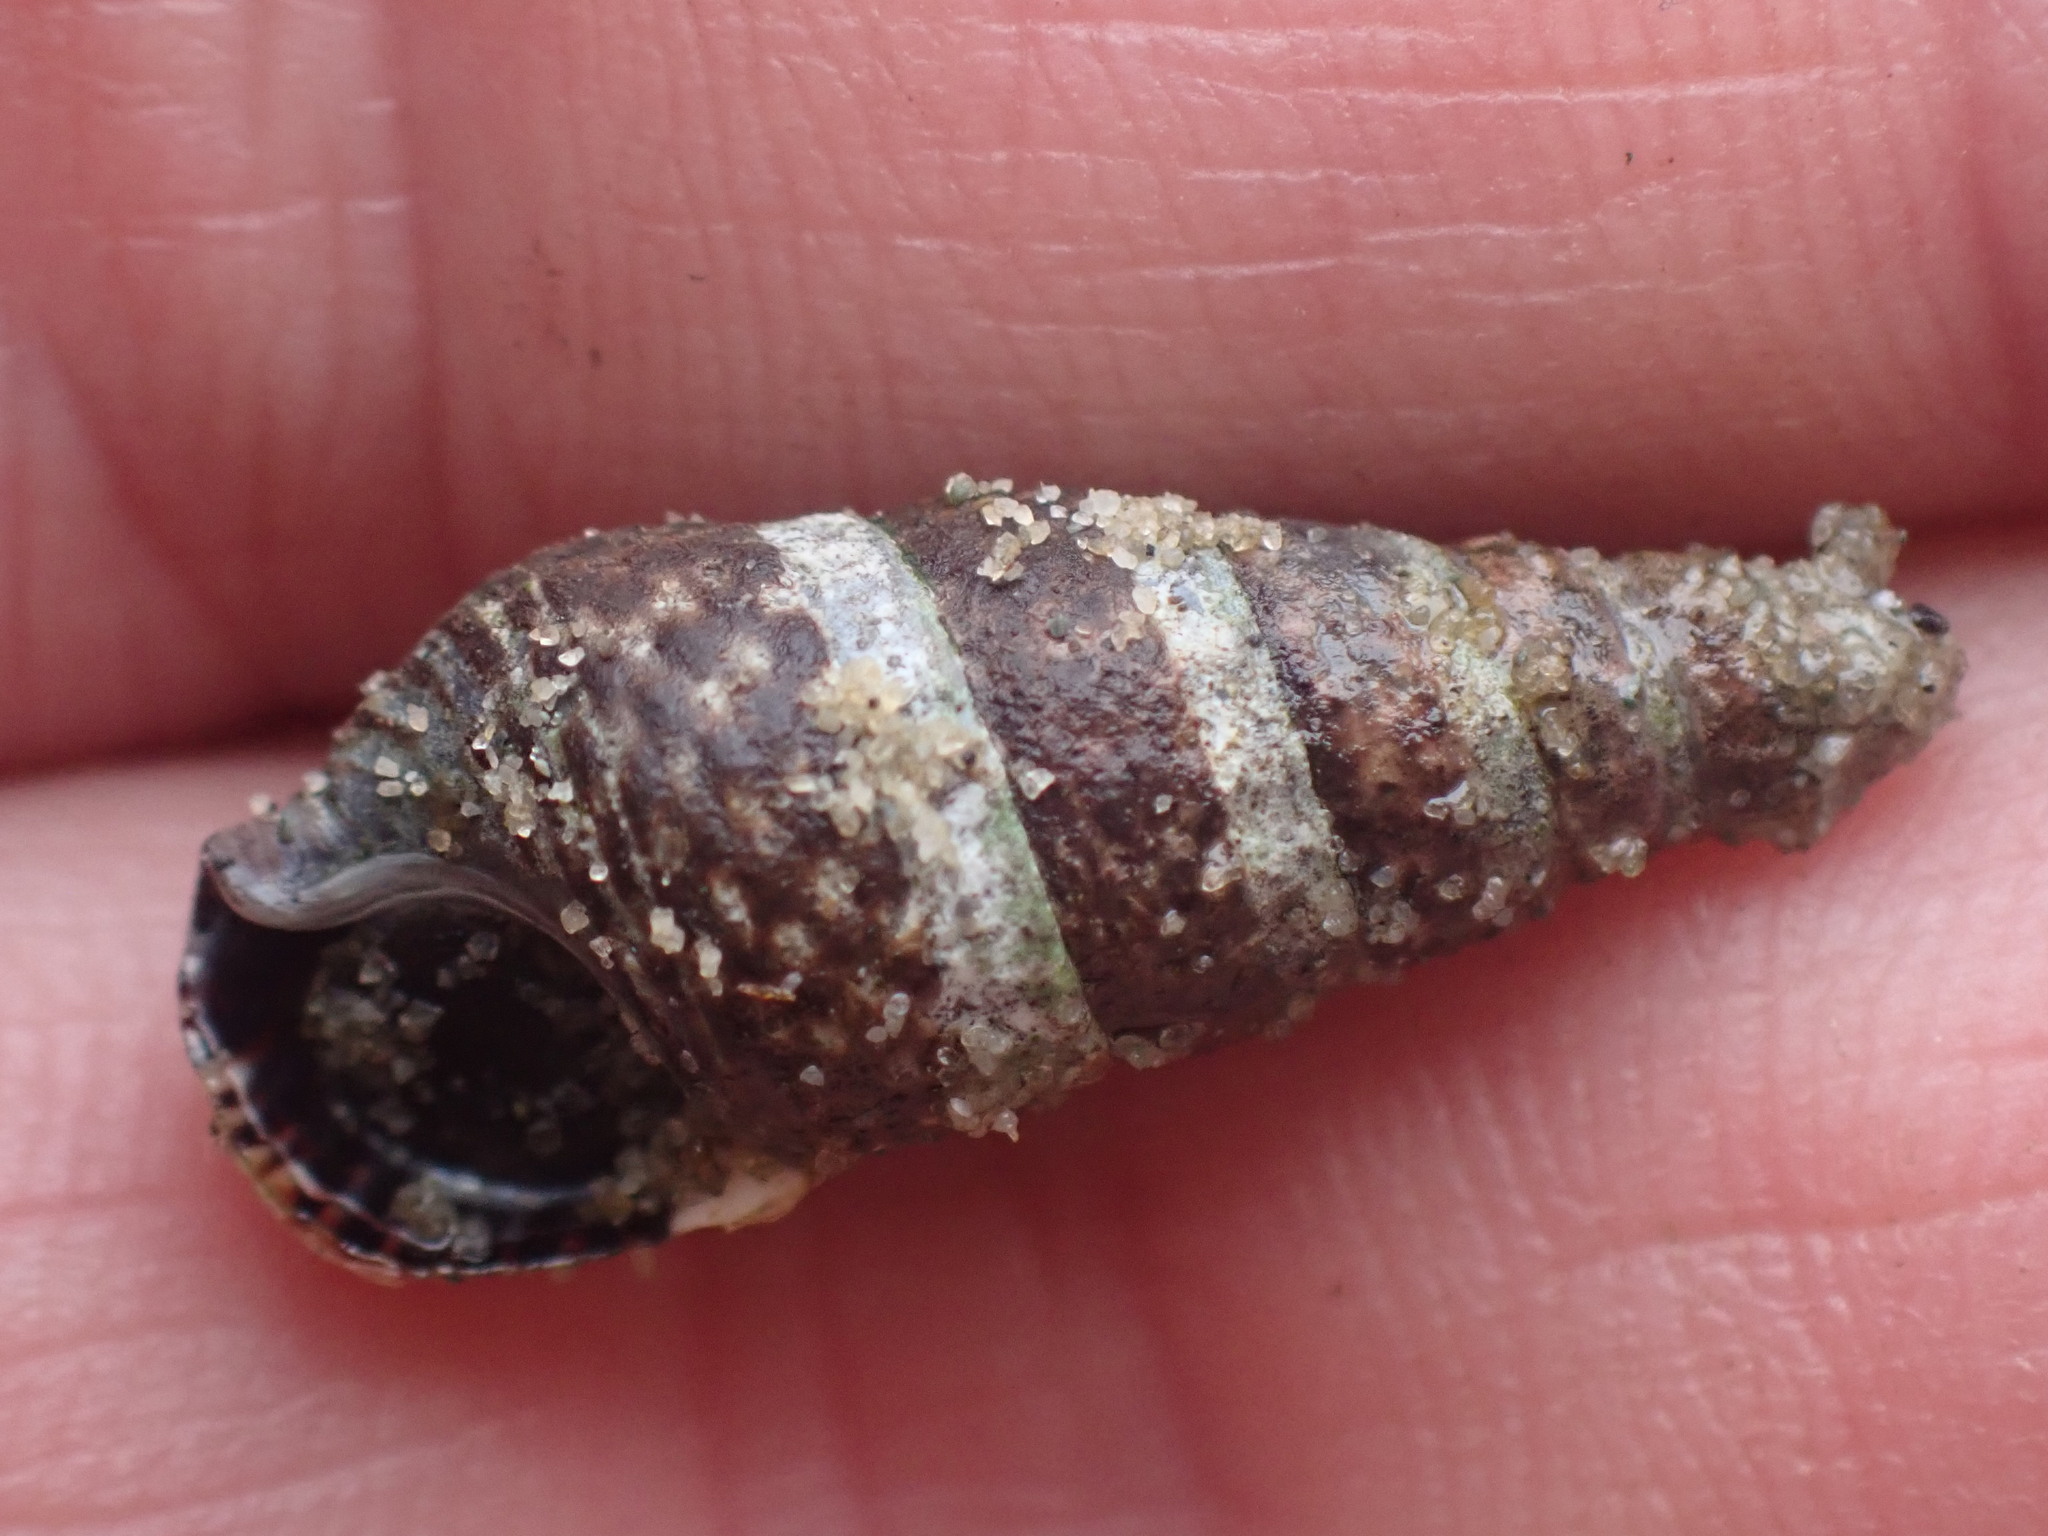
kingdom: Animalia
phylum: Mollusca
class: Gastropoda
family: Batillariidae
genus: Batillaria
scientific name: Batillaria attramentaria
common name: Japanese false cerith
